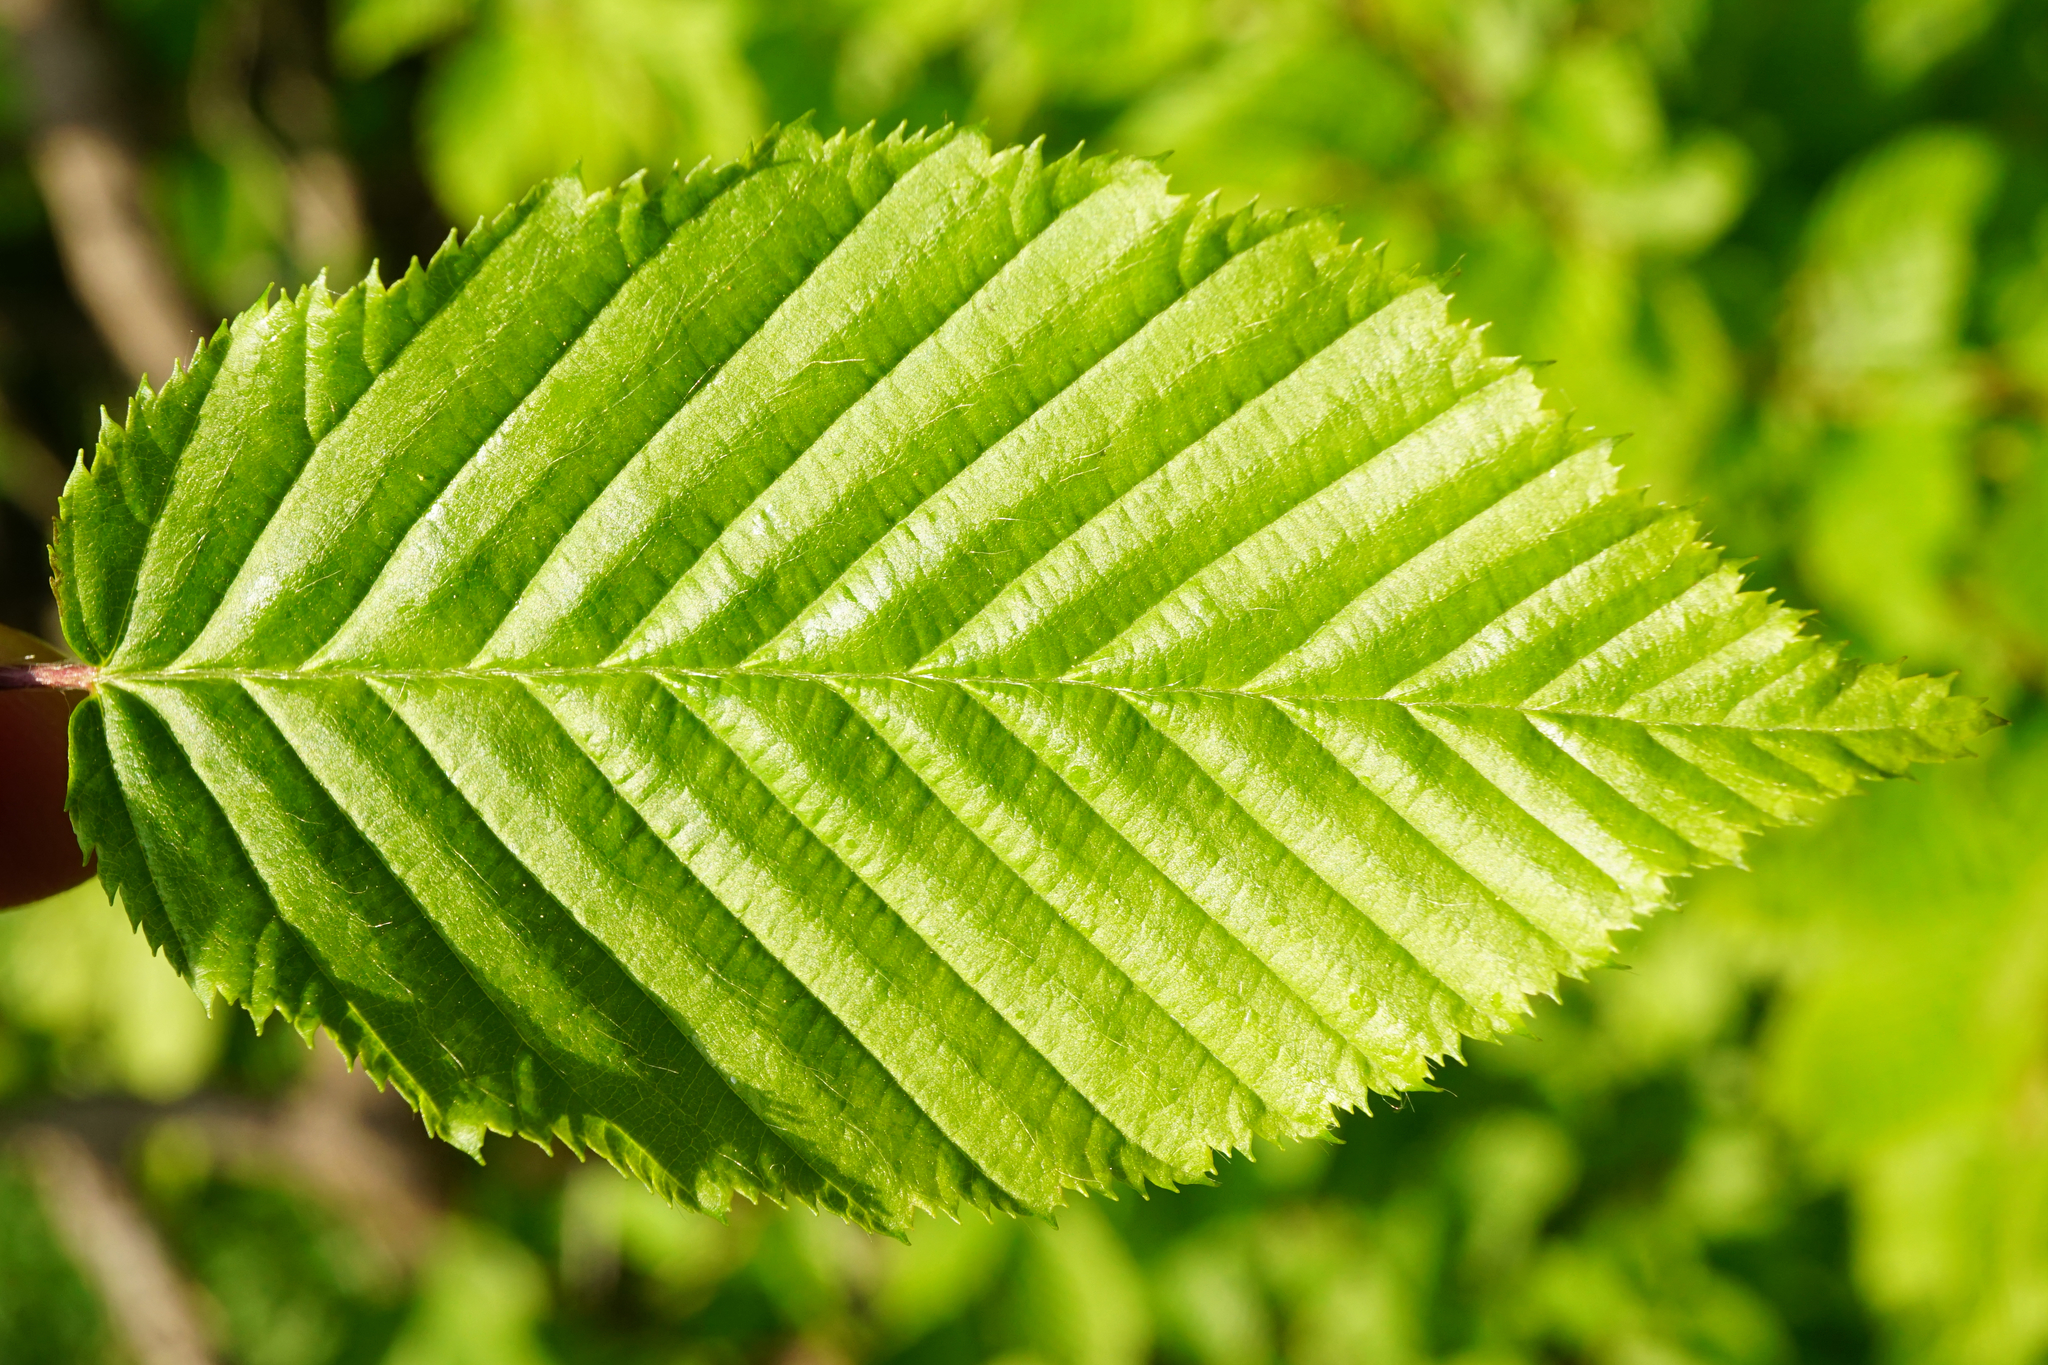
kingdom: Plantae
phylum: Tracheophyta
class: Magnoliopsida
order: Fagales
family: Betulaceae
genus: Carpinus
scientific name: Carpinus betulus
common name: Hornbeam
